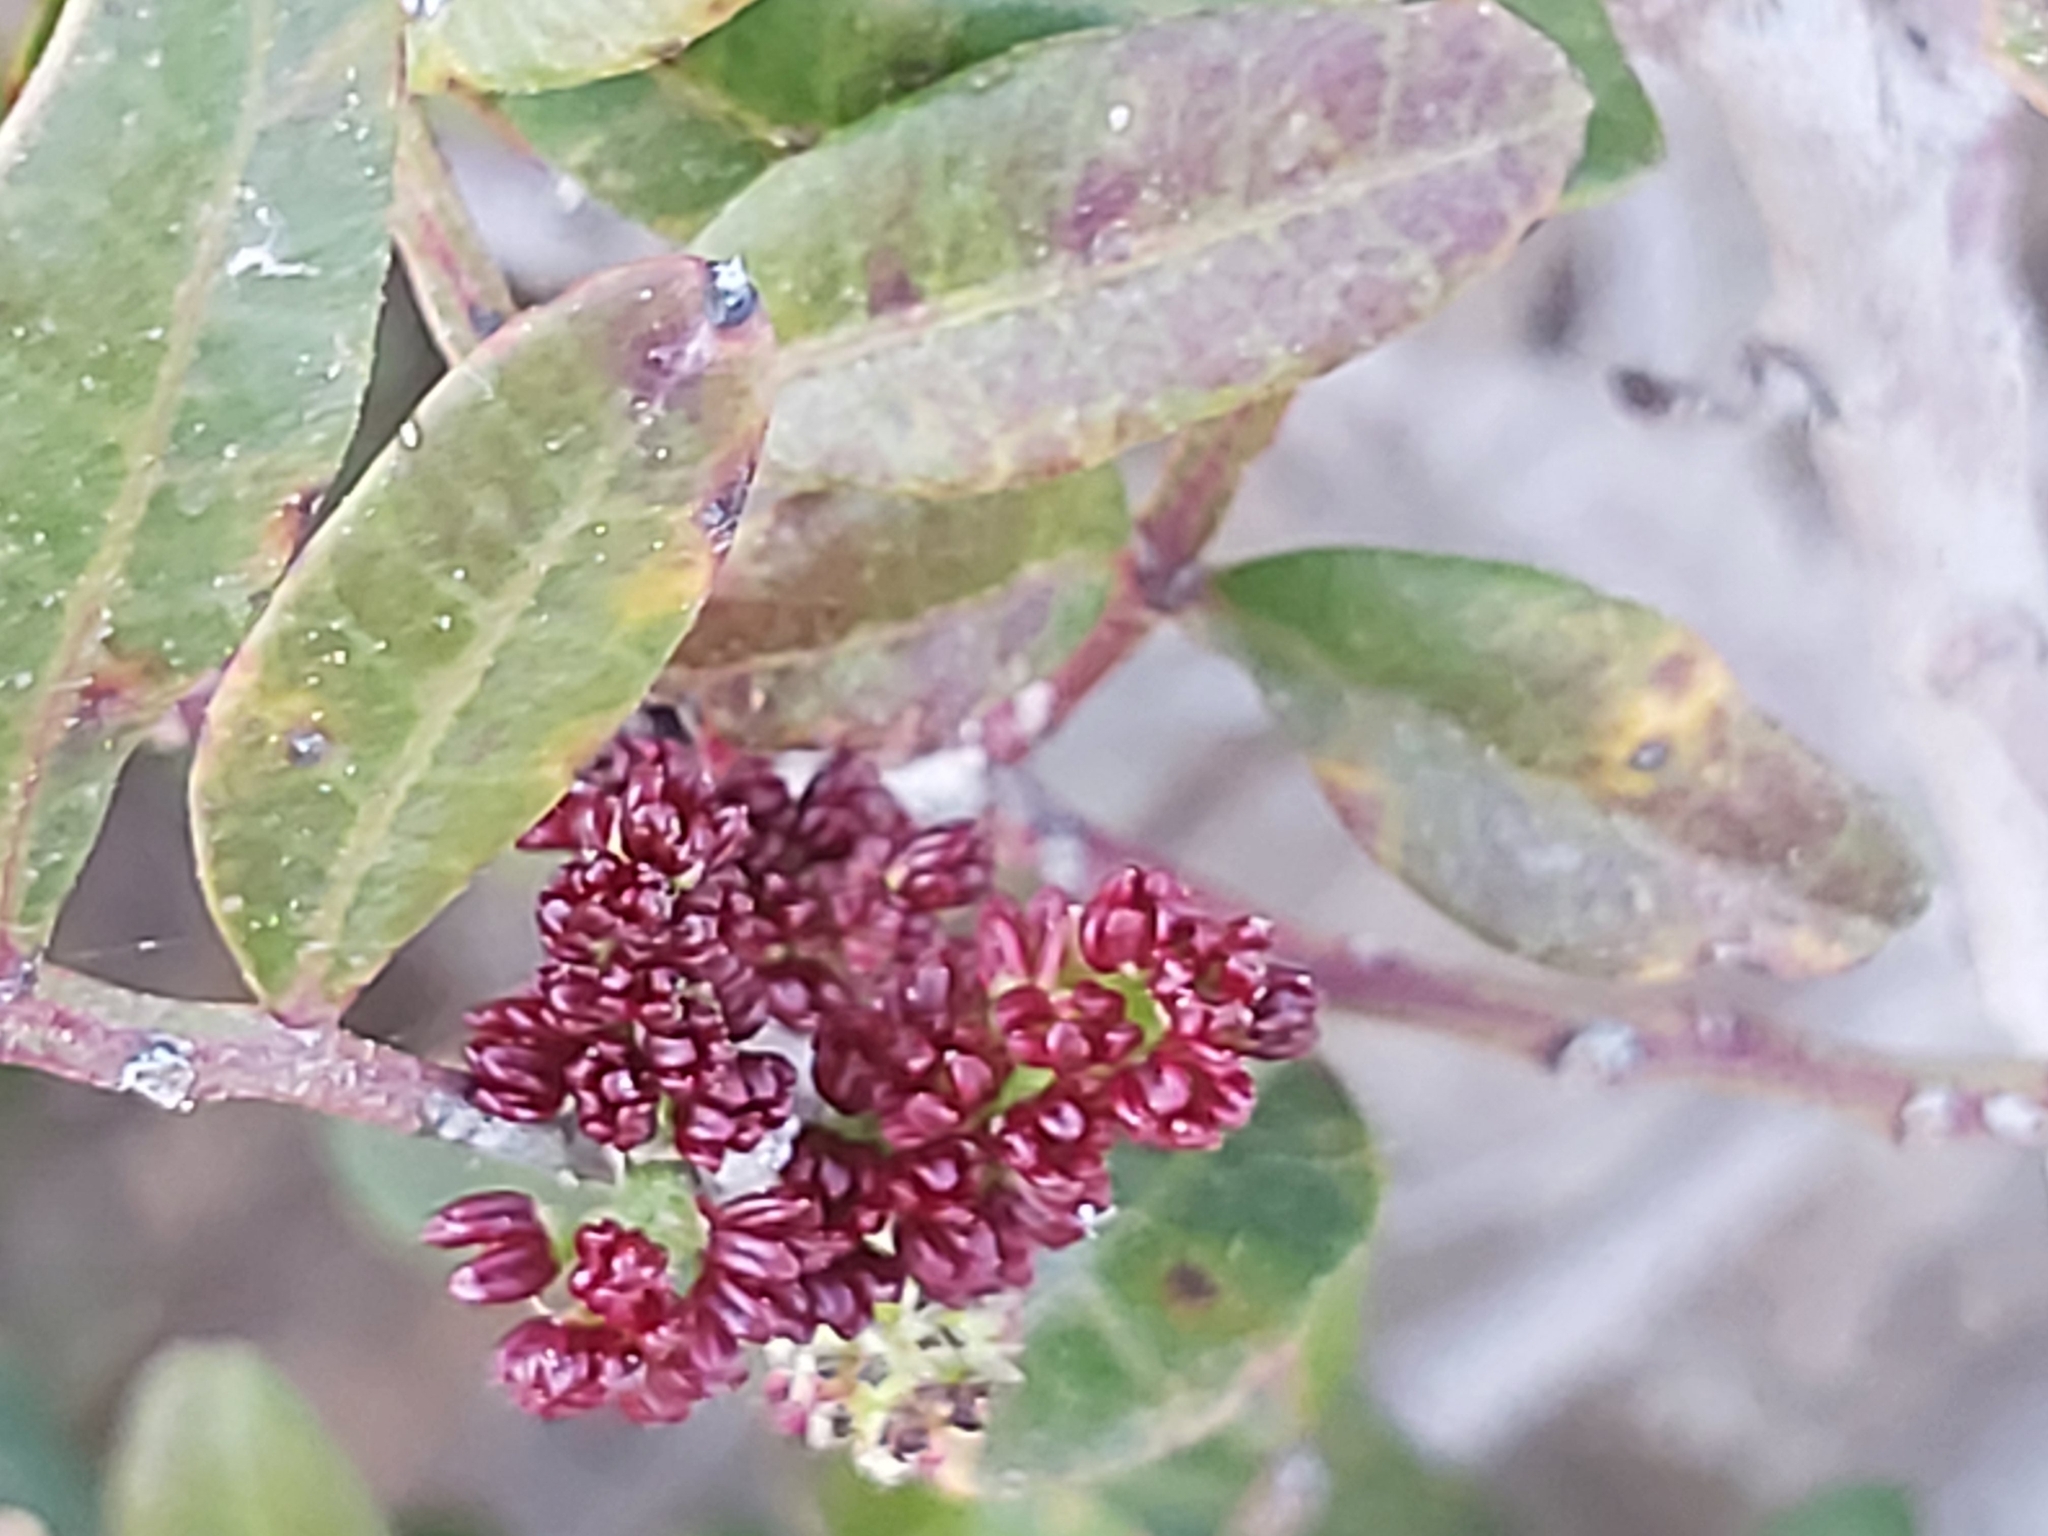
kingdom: Plantae
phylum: Tracheophyta
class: Magnoliopsida
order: Sapindales
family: Anacardiaceae
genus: Pistacia
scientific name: Pistacia lentiscus
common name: Lentisk
